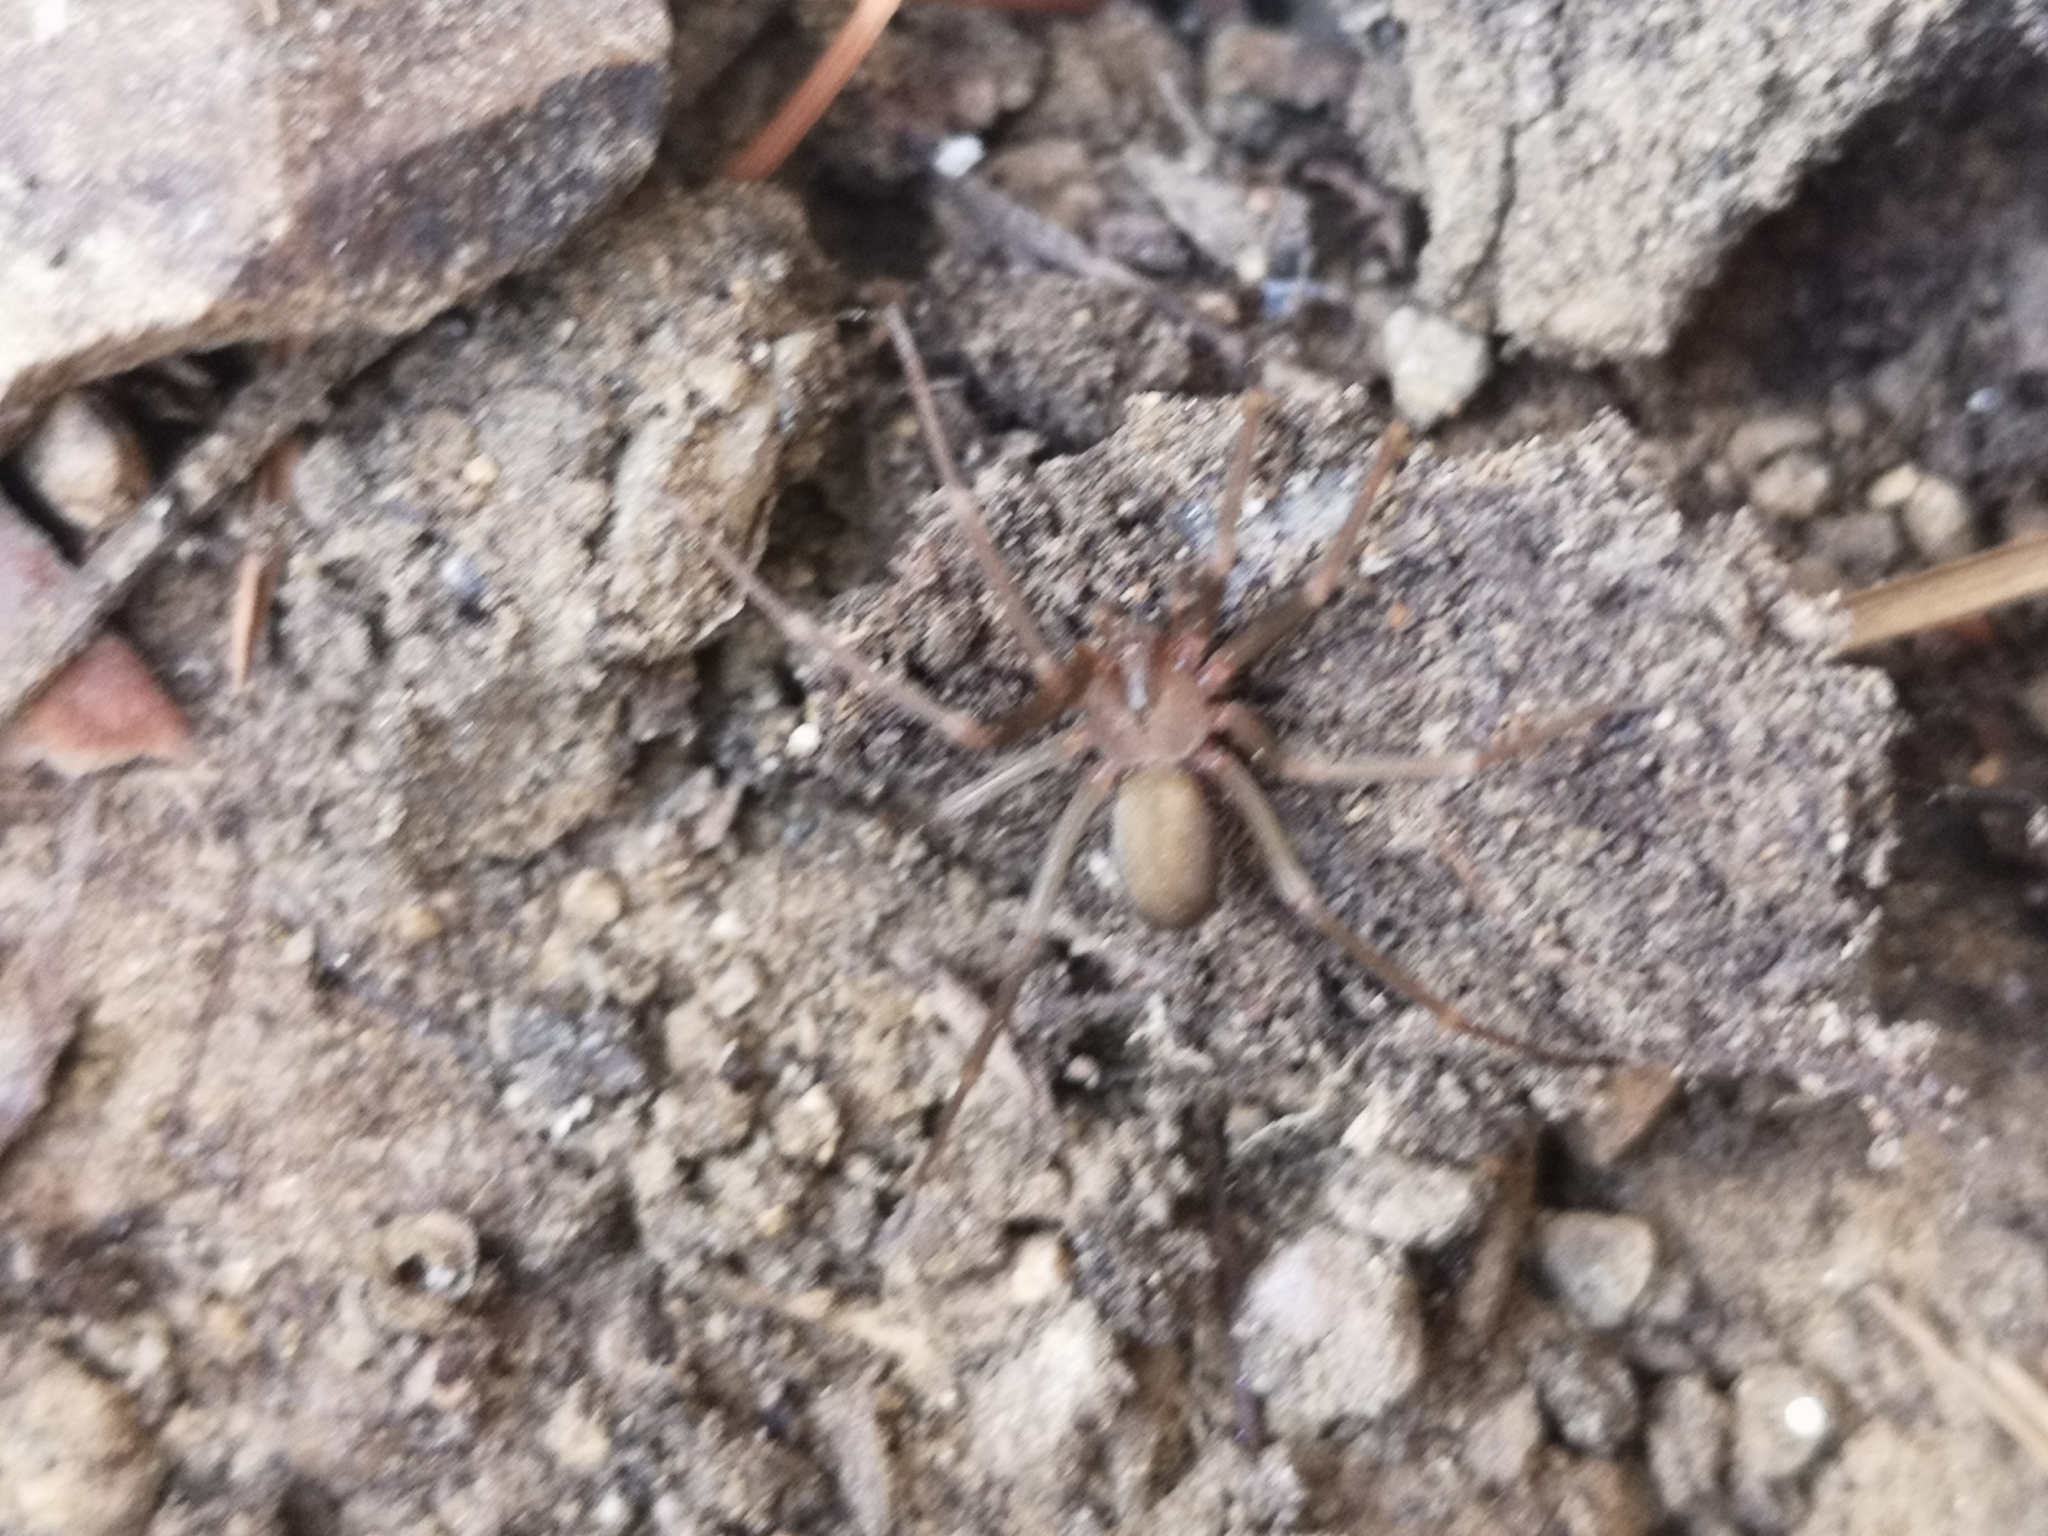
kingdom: Animalia
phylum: Arthropoda
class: Arachnida
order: Araneae
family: Sicariidae
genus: Loxosceles
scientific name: Loxosceles rufescens
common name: Mediterranean recluse spider
